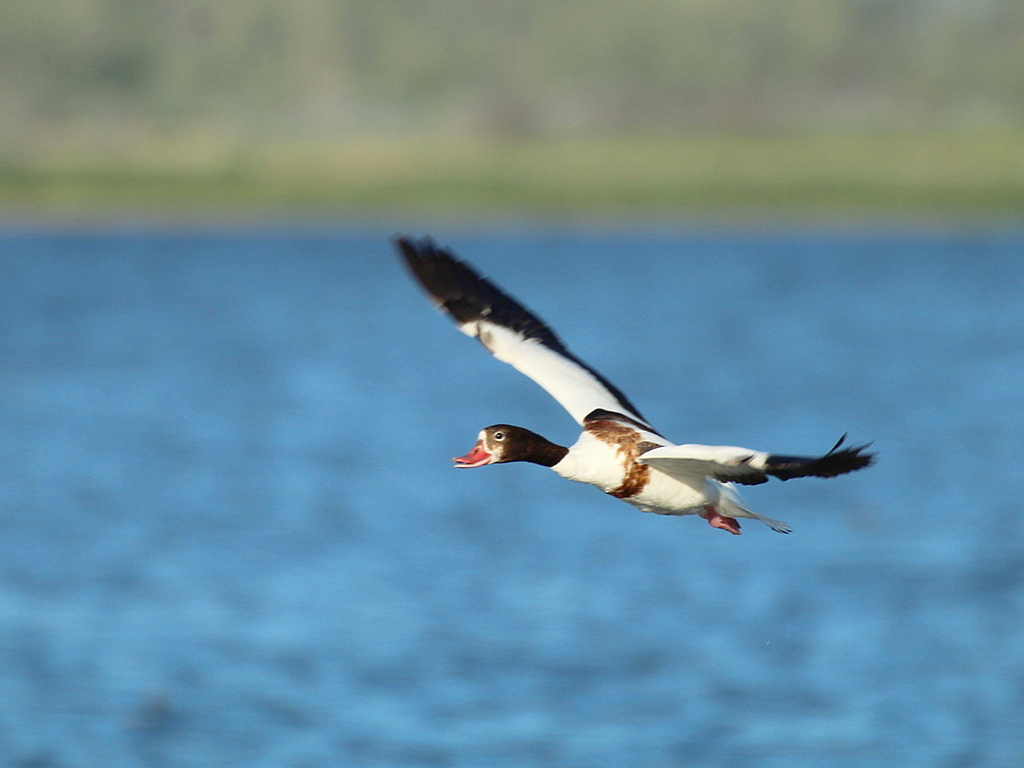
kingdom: Animalia
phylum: Chordata
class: Aves
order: Anseriformes
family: Anatidae
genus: Tadorna
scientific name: Tadorna tadorna
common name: Common shelduck
